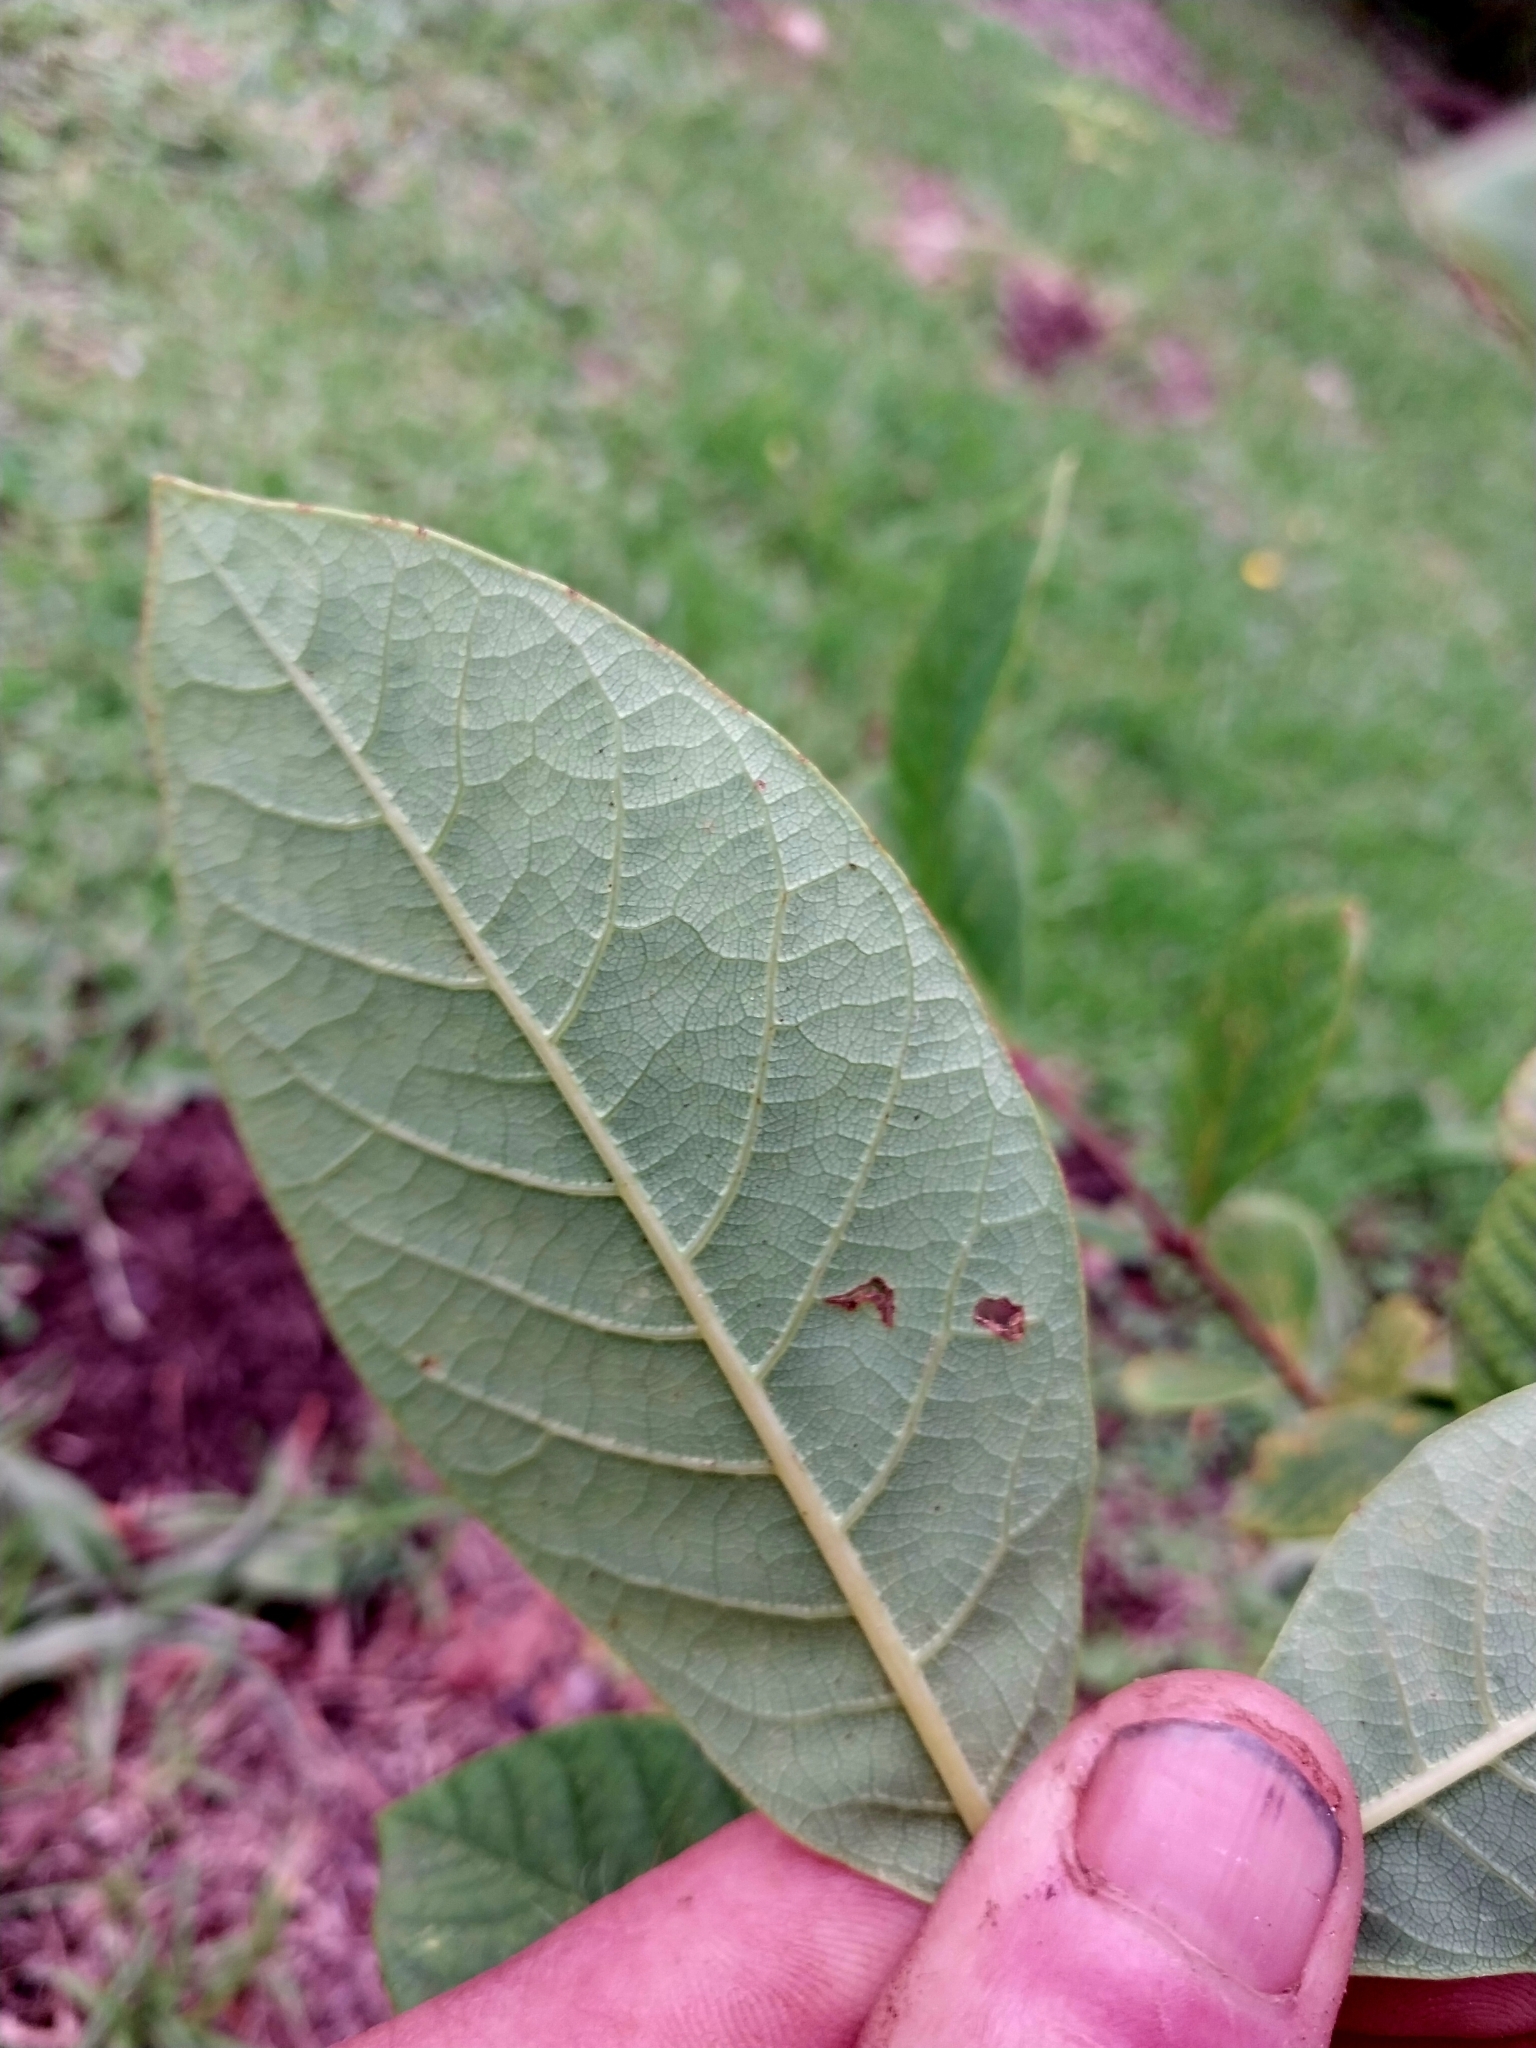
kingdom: Plantae
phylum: Tracheophyta
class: Magnoliopsida
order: Malvales
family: Thymelaeaceae
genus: Dais
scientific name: Dais cotinifolia
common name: Pompon tree
